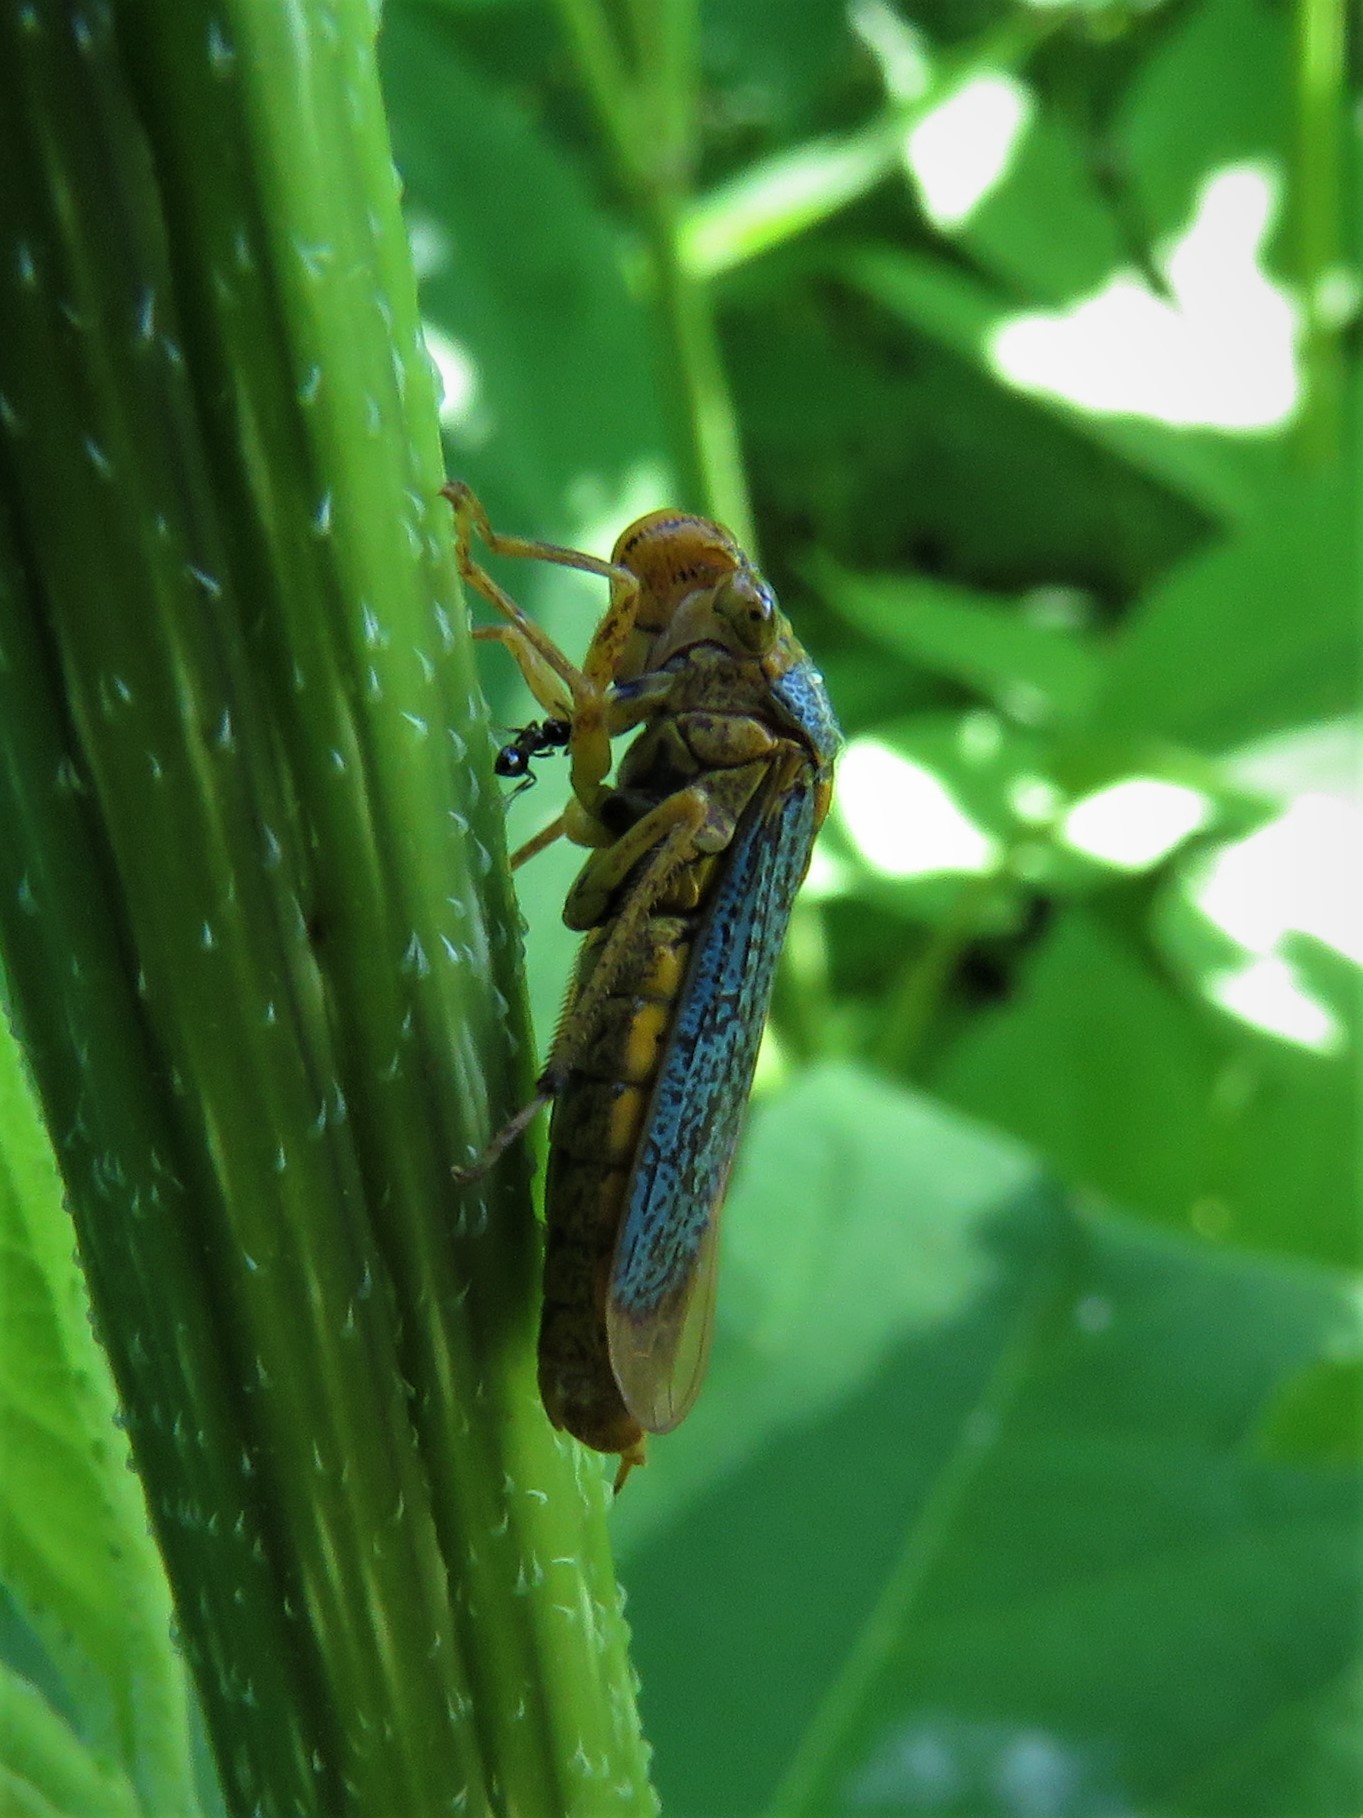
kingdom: Animalia
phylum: Arthropoda
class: Insecta
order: Hemiptera
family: Cicadellidae
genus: Oncometopia
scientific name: Oncometopia orbona
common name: Broad-headed sharpshooter
